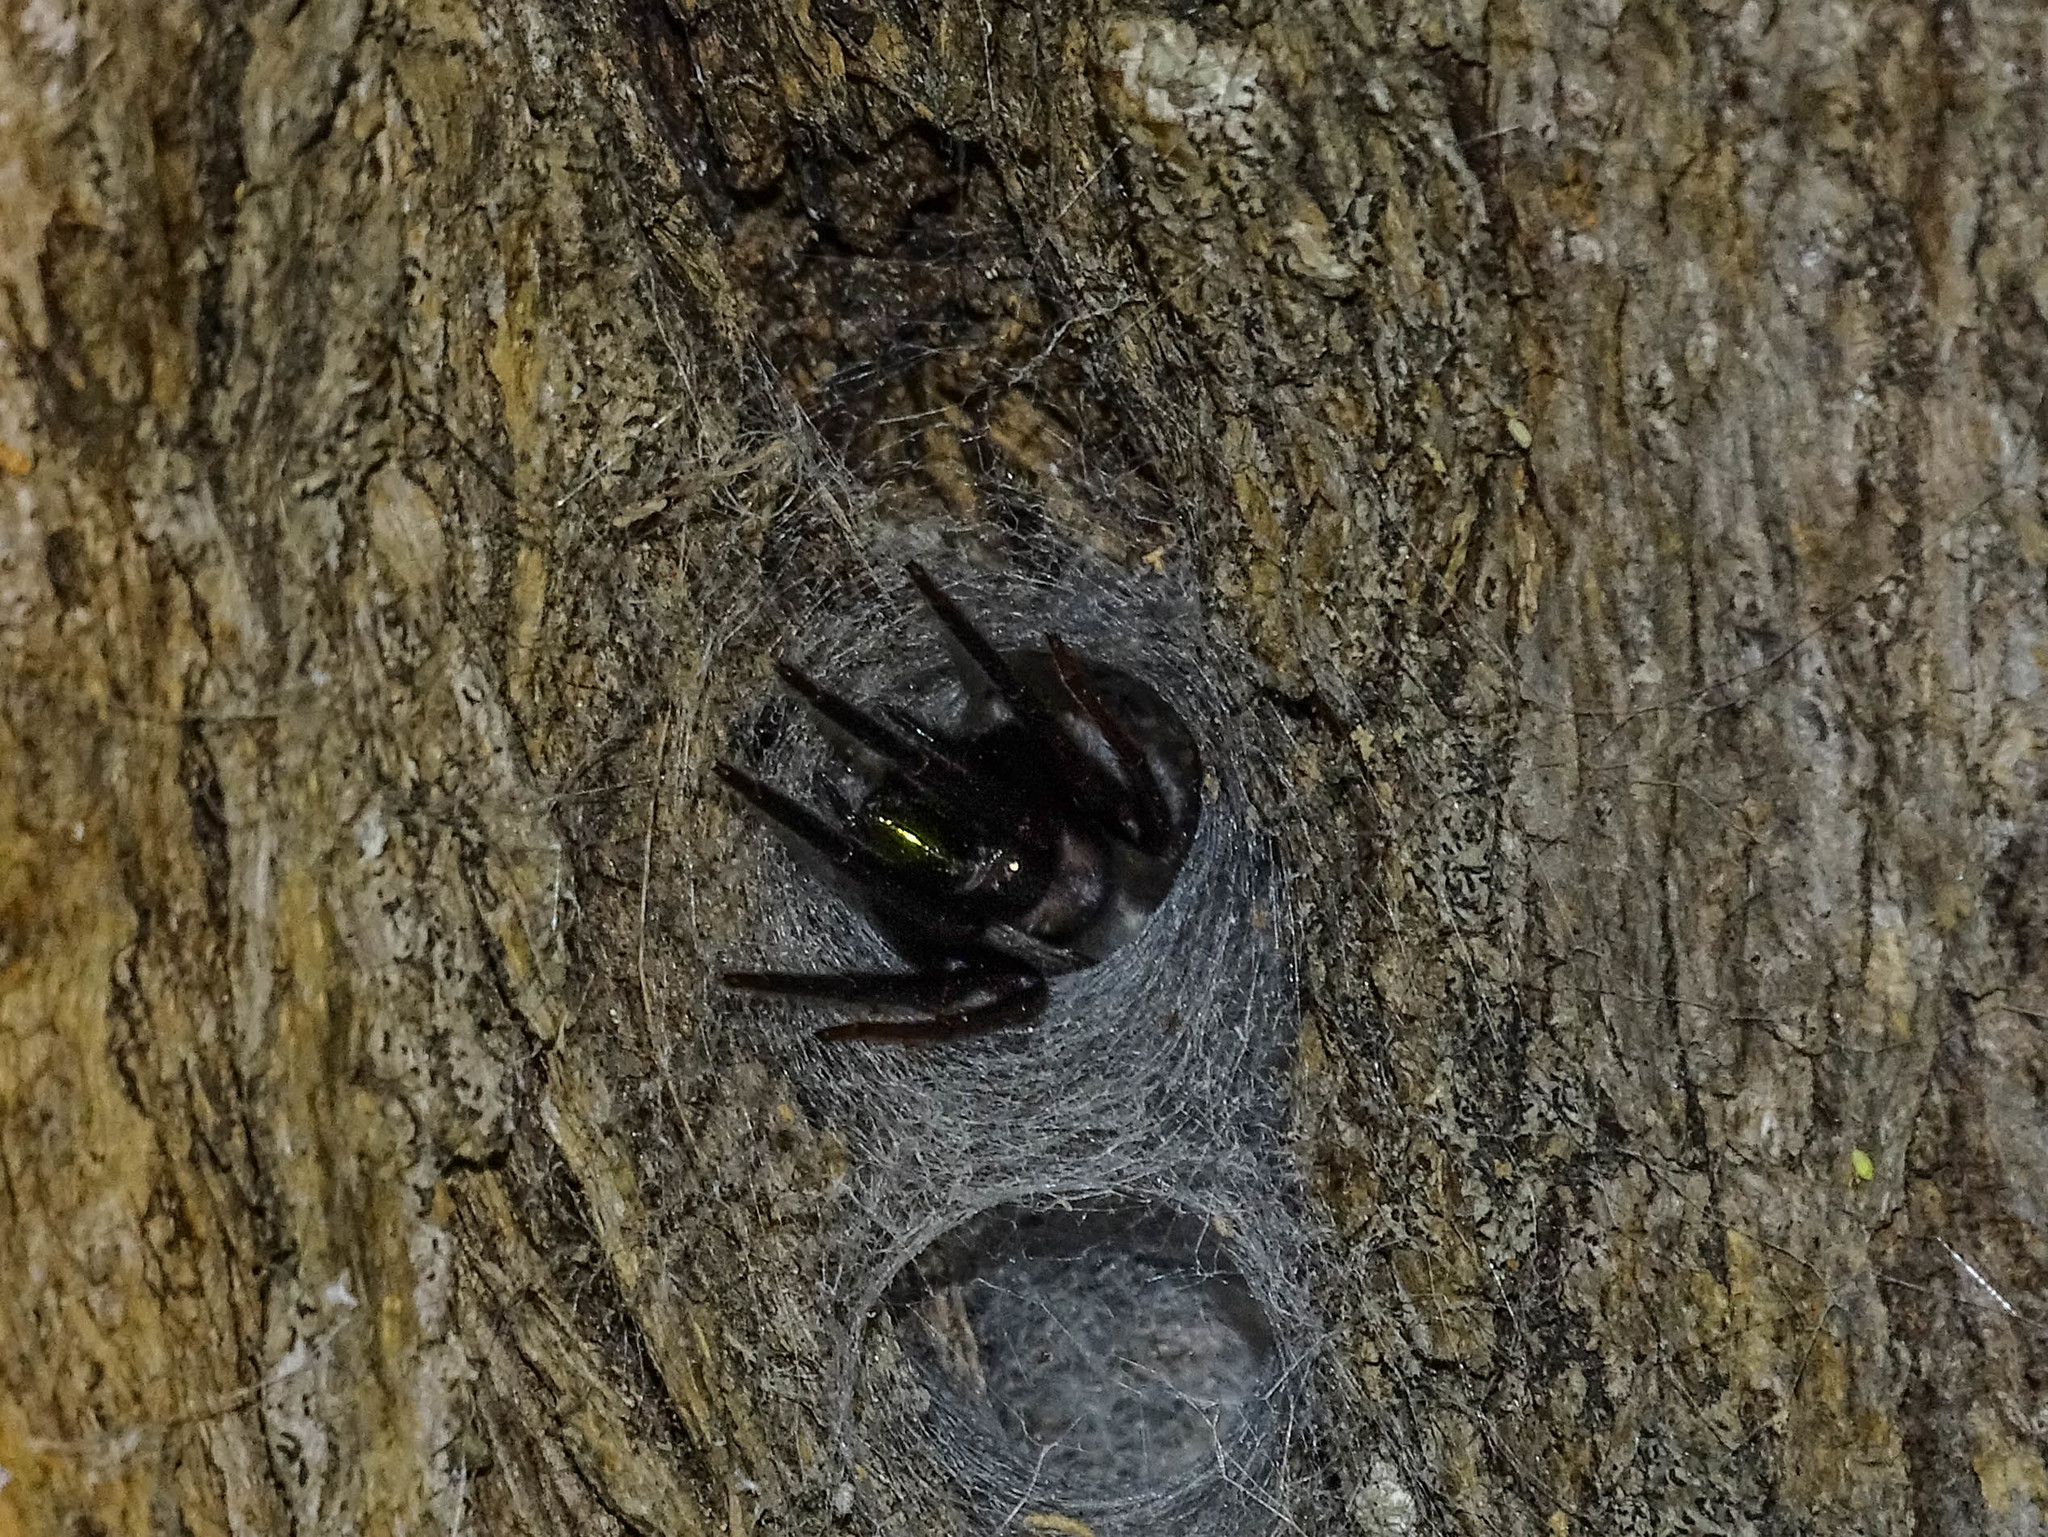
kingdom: Animalia
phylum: Arthropoda
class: Arachnida
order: Araneae
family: Segestriidae
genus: Segestria
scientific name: Segestria florentina
